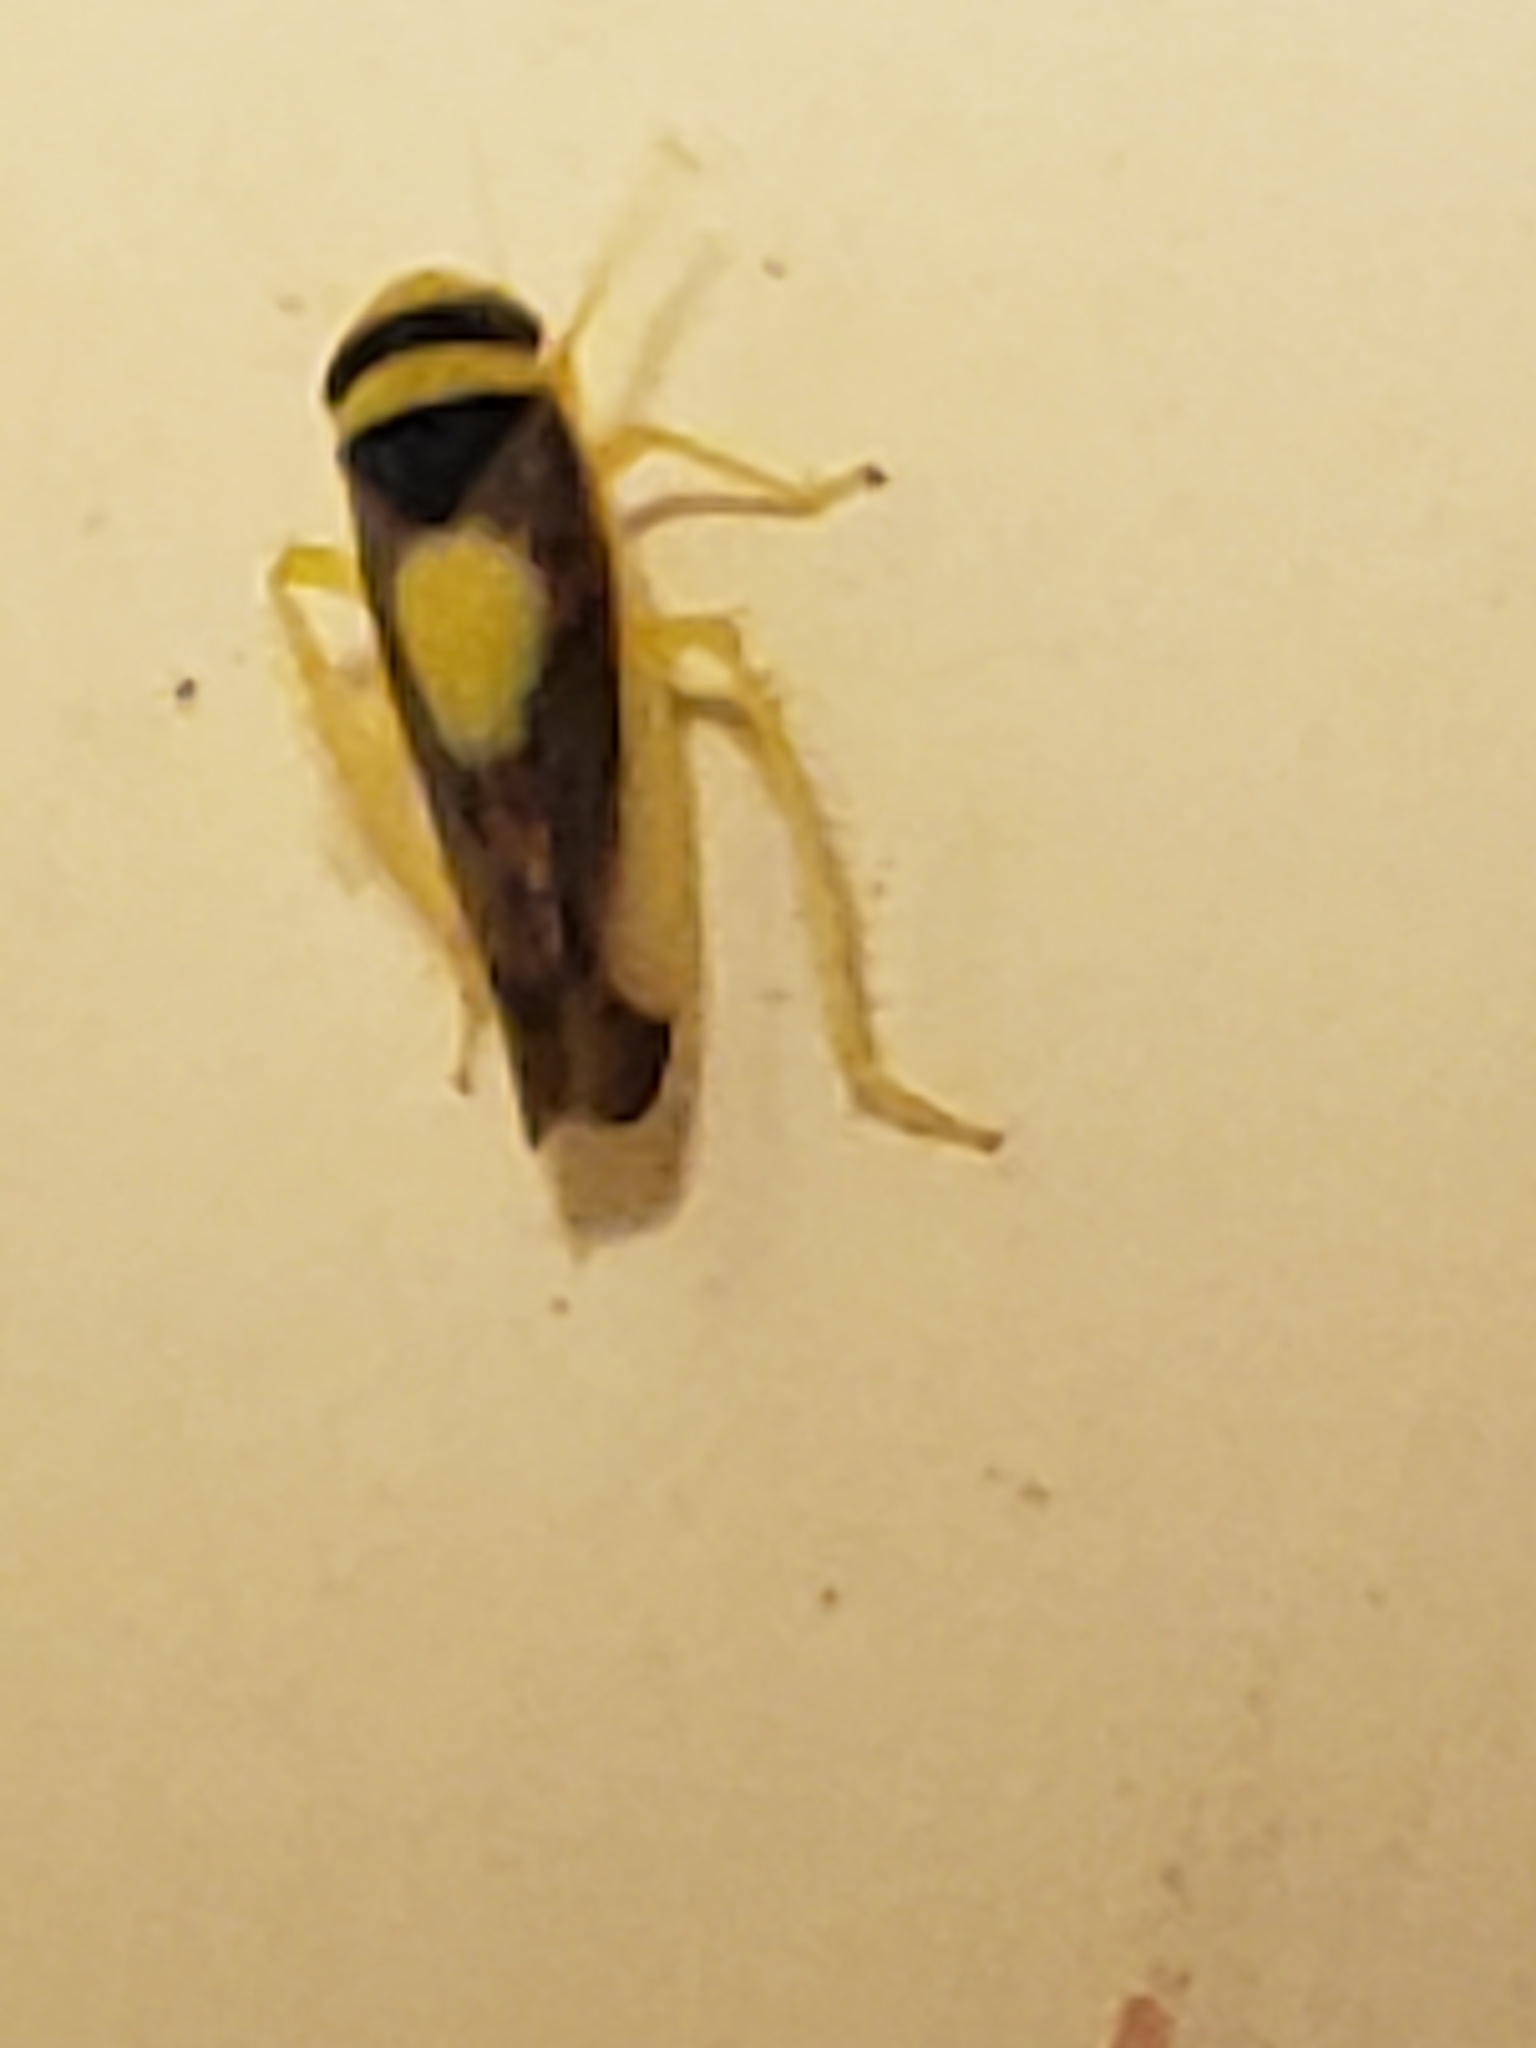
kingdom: Animalia
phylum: Arthropoda
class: Insecta
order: Hemiptera
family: Cicadellidae
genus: Colladonus
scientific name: Colladonus clitellarius
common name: The saddleback leafhopper
